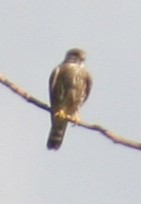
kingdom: Animalia
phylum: Chordata
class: Aves
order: Falconiformes
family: Falconidae
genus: Falco
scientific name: Falco columbarius
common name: Merlin
